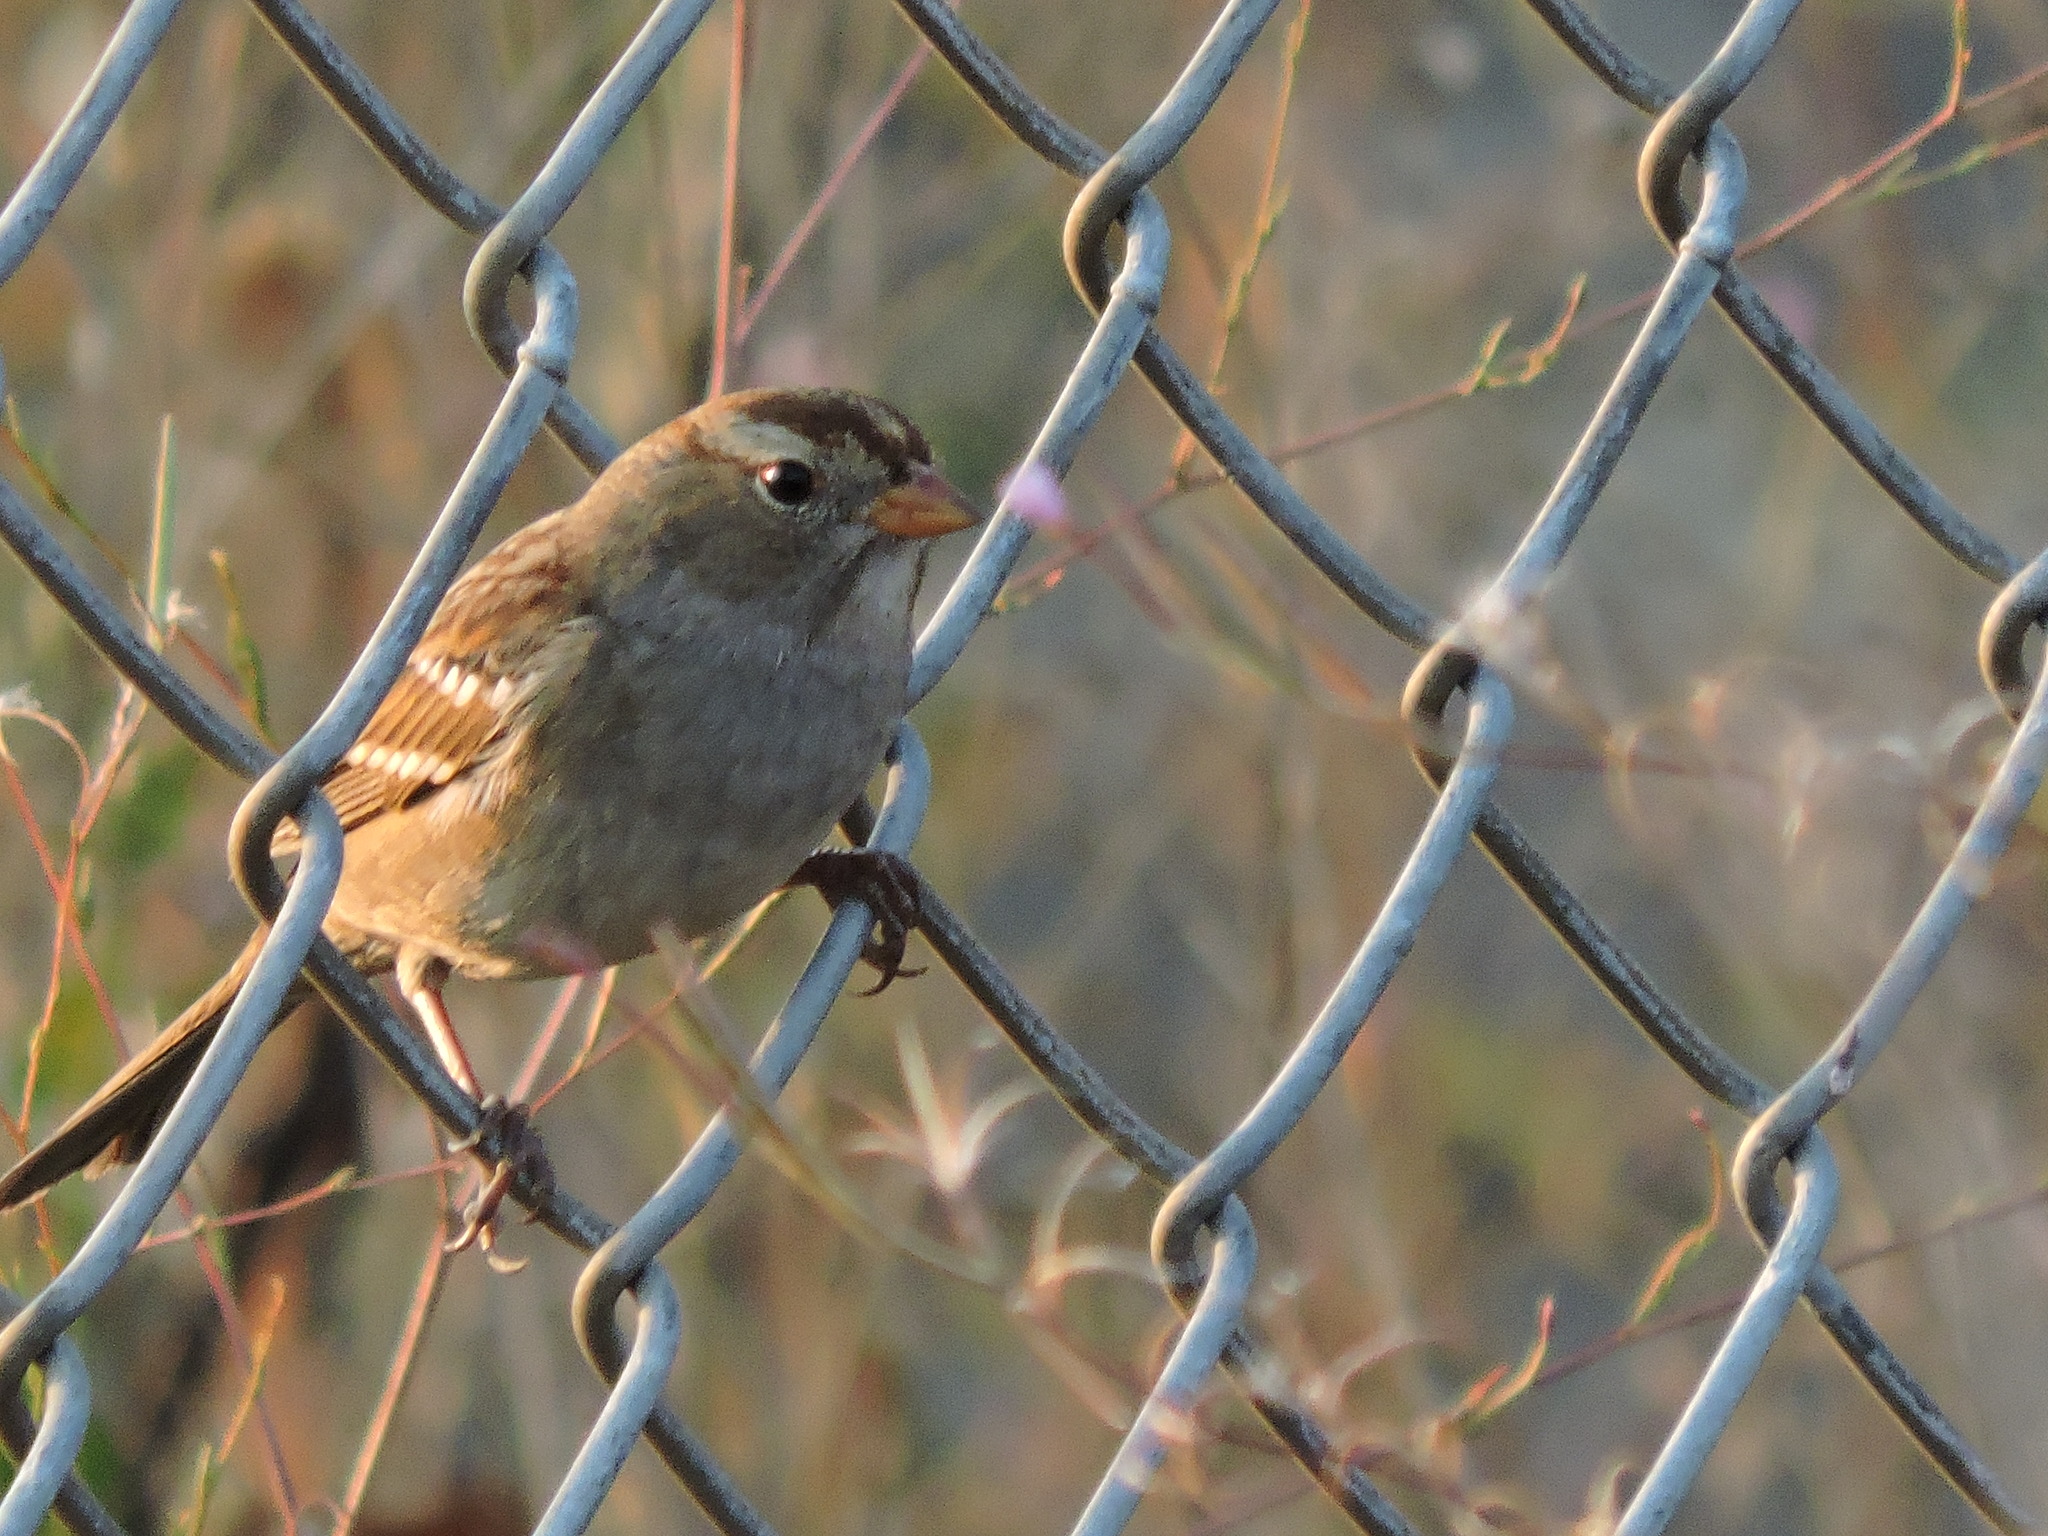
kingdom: Animalia
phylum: Chordata
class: Aves
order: Passeriformes
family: Passerellidae
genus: Zonotrichia
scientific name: Zonotrichia leucophrys
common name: White-crowned sparrow
